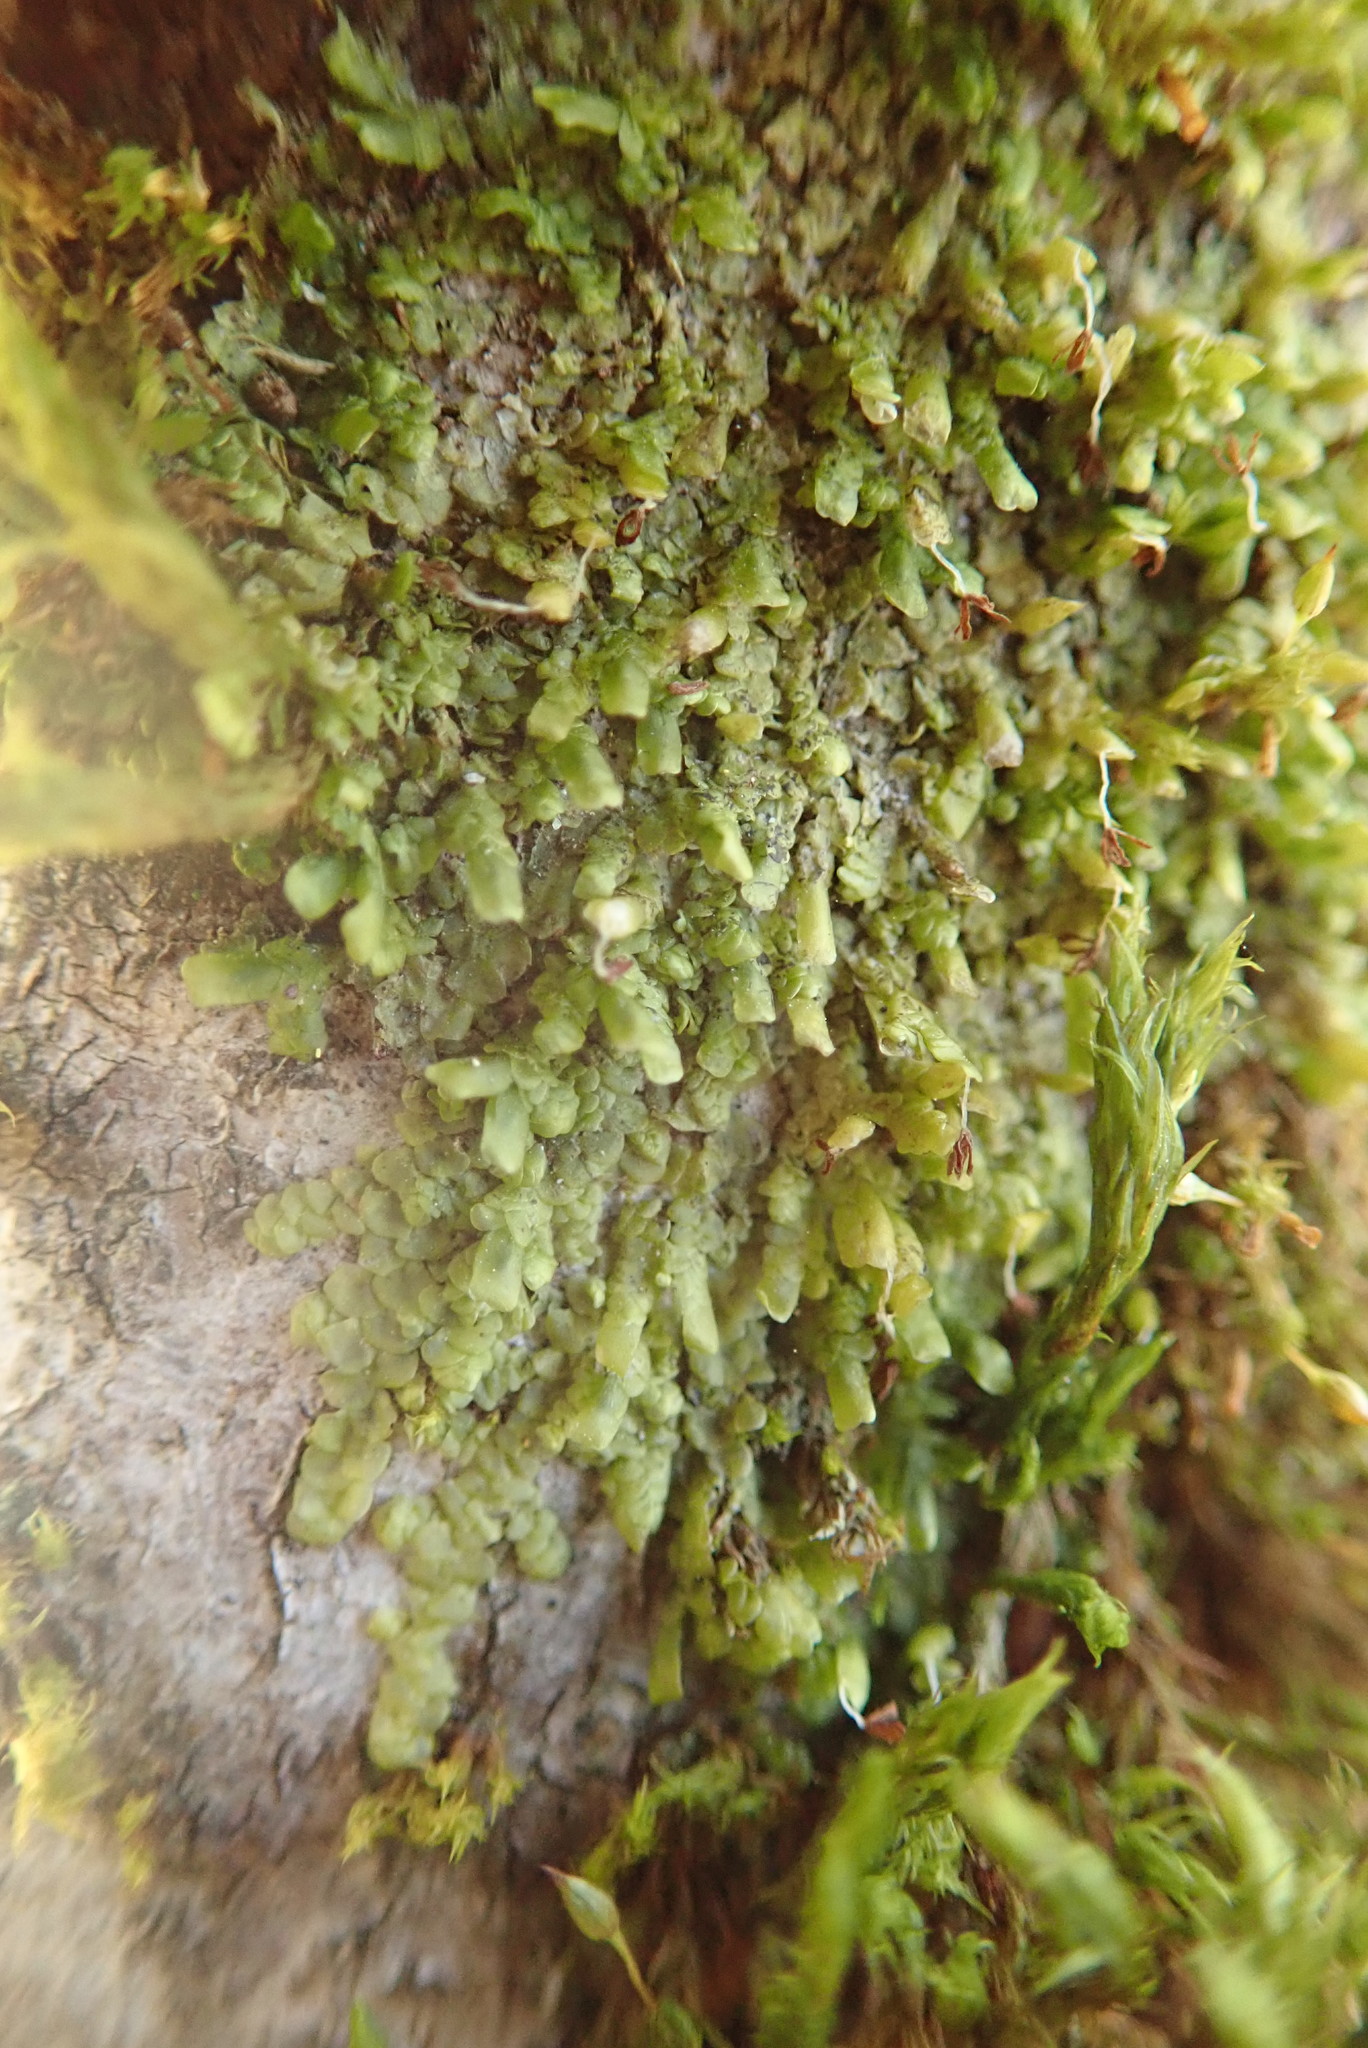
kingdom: Plantae
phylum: Marchantiophyta
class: Jungermanniopsida
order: Porellales
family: Radulaceae
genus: Radula
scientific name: Radula complanata
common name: Flat-leaved scalewort
